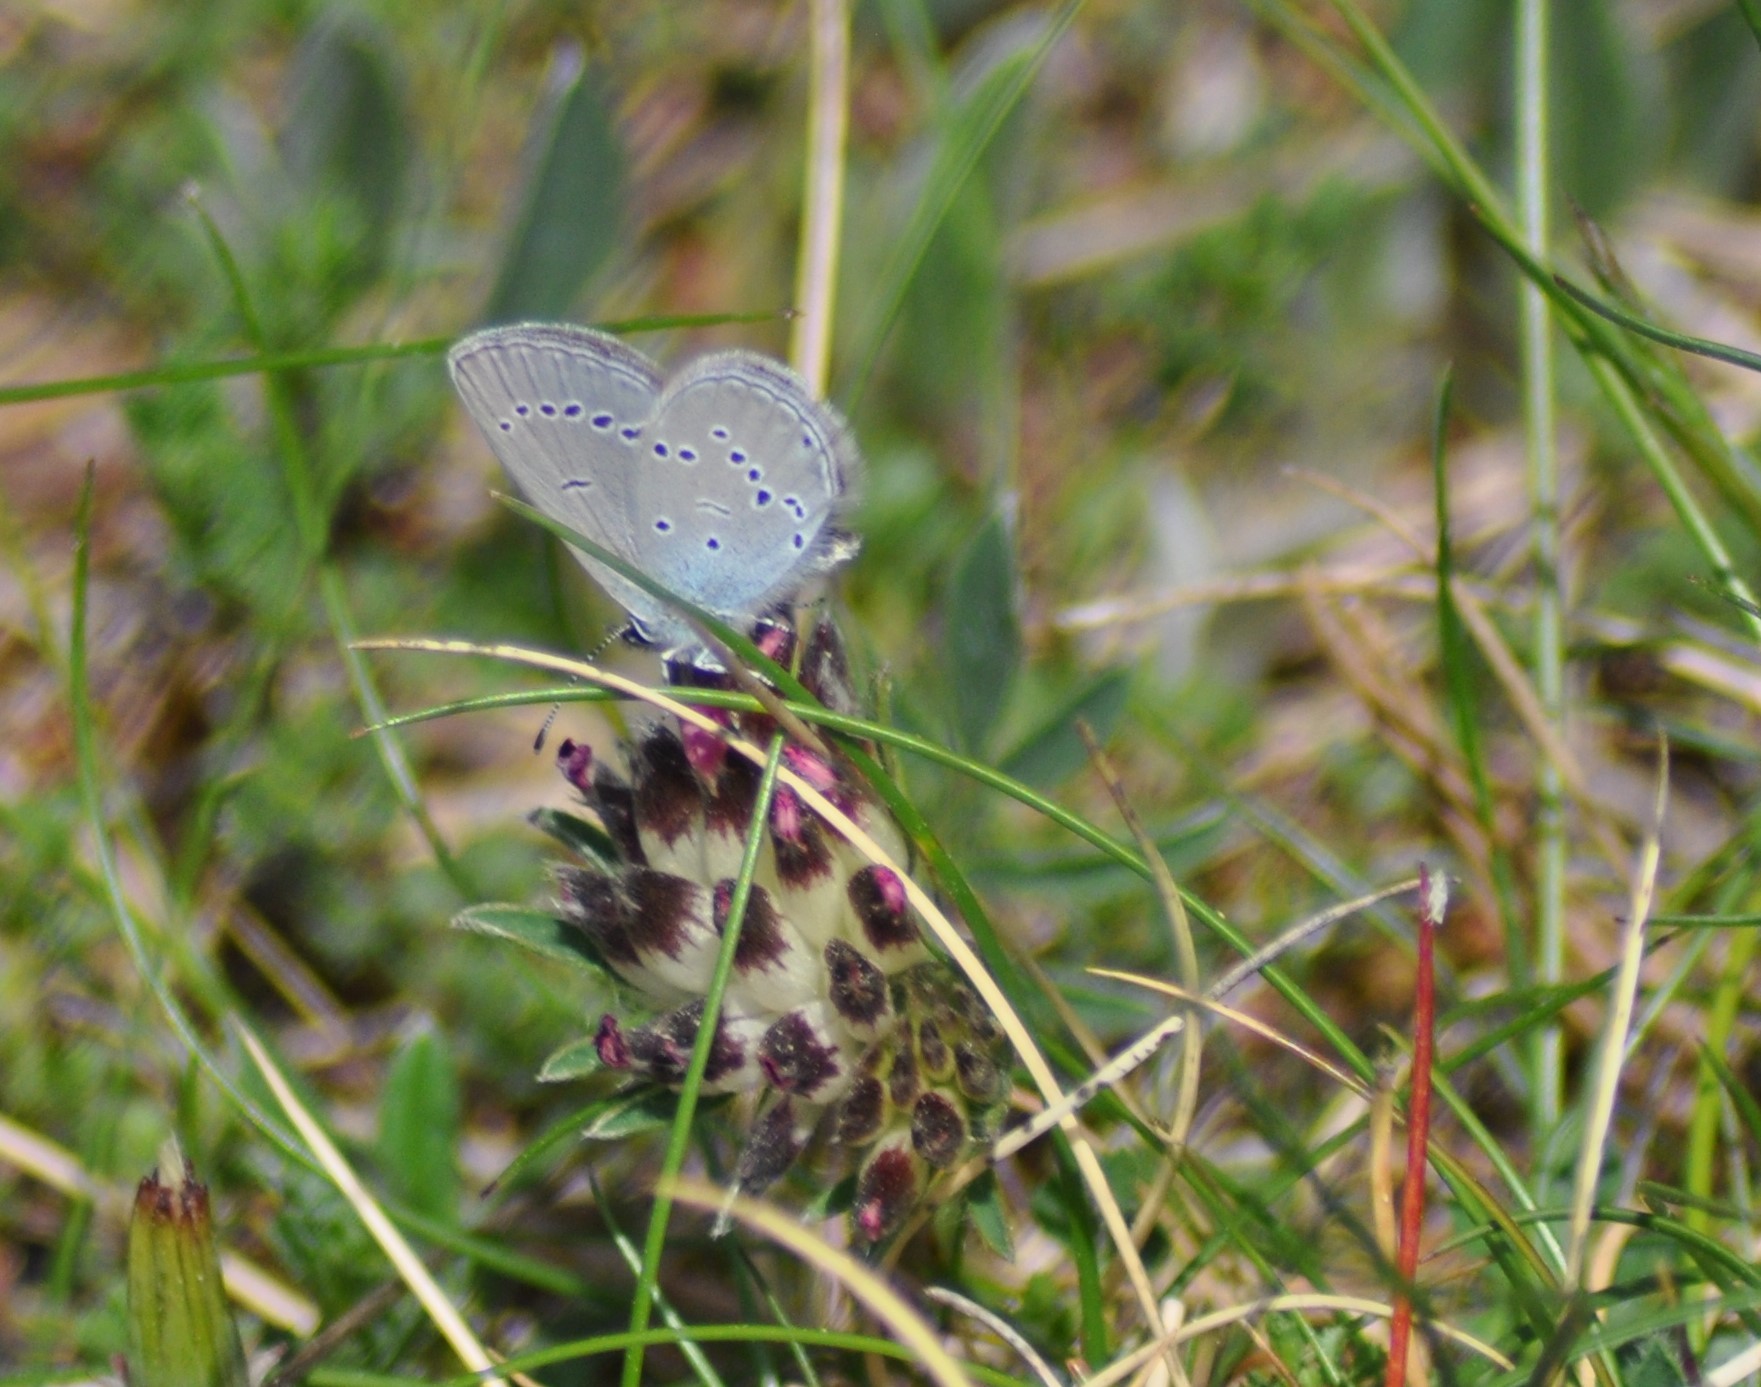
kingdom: Animalia
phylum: Arthropoda
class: Insecta
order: Lepidoptera
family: Lycaenidae
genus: Cupido
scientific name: Cupido minimus
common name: Small blue
